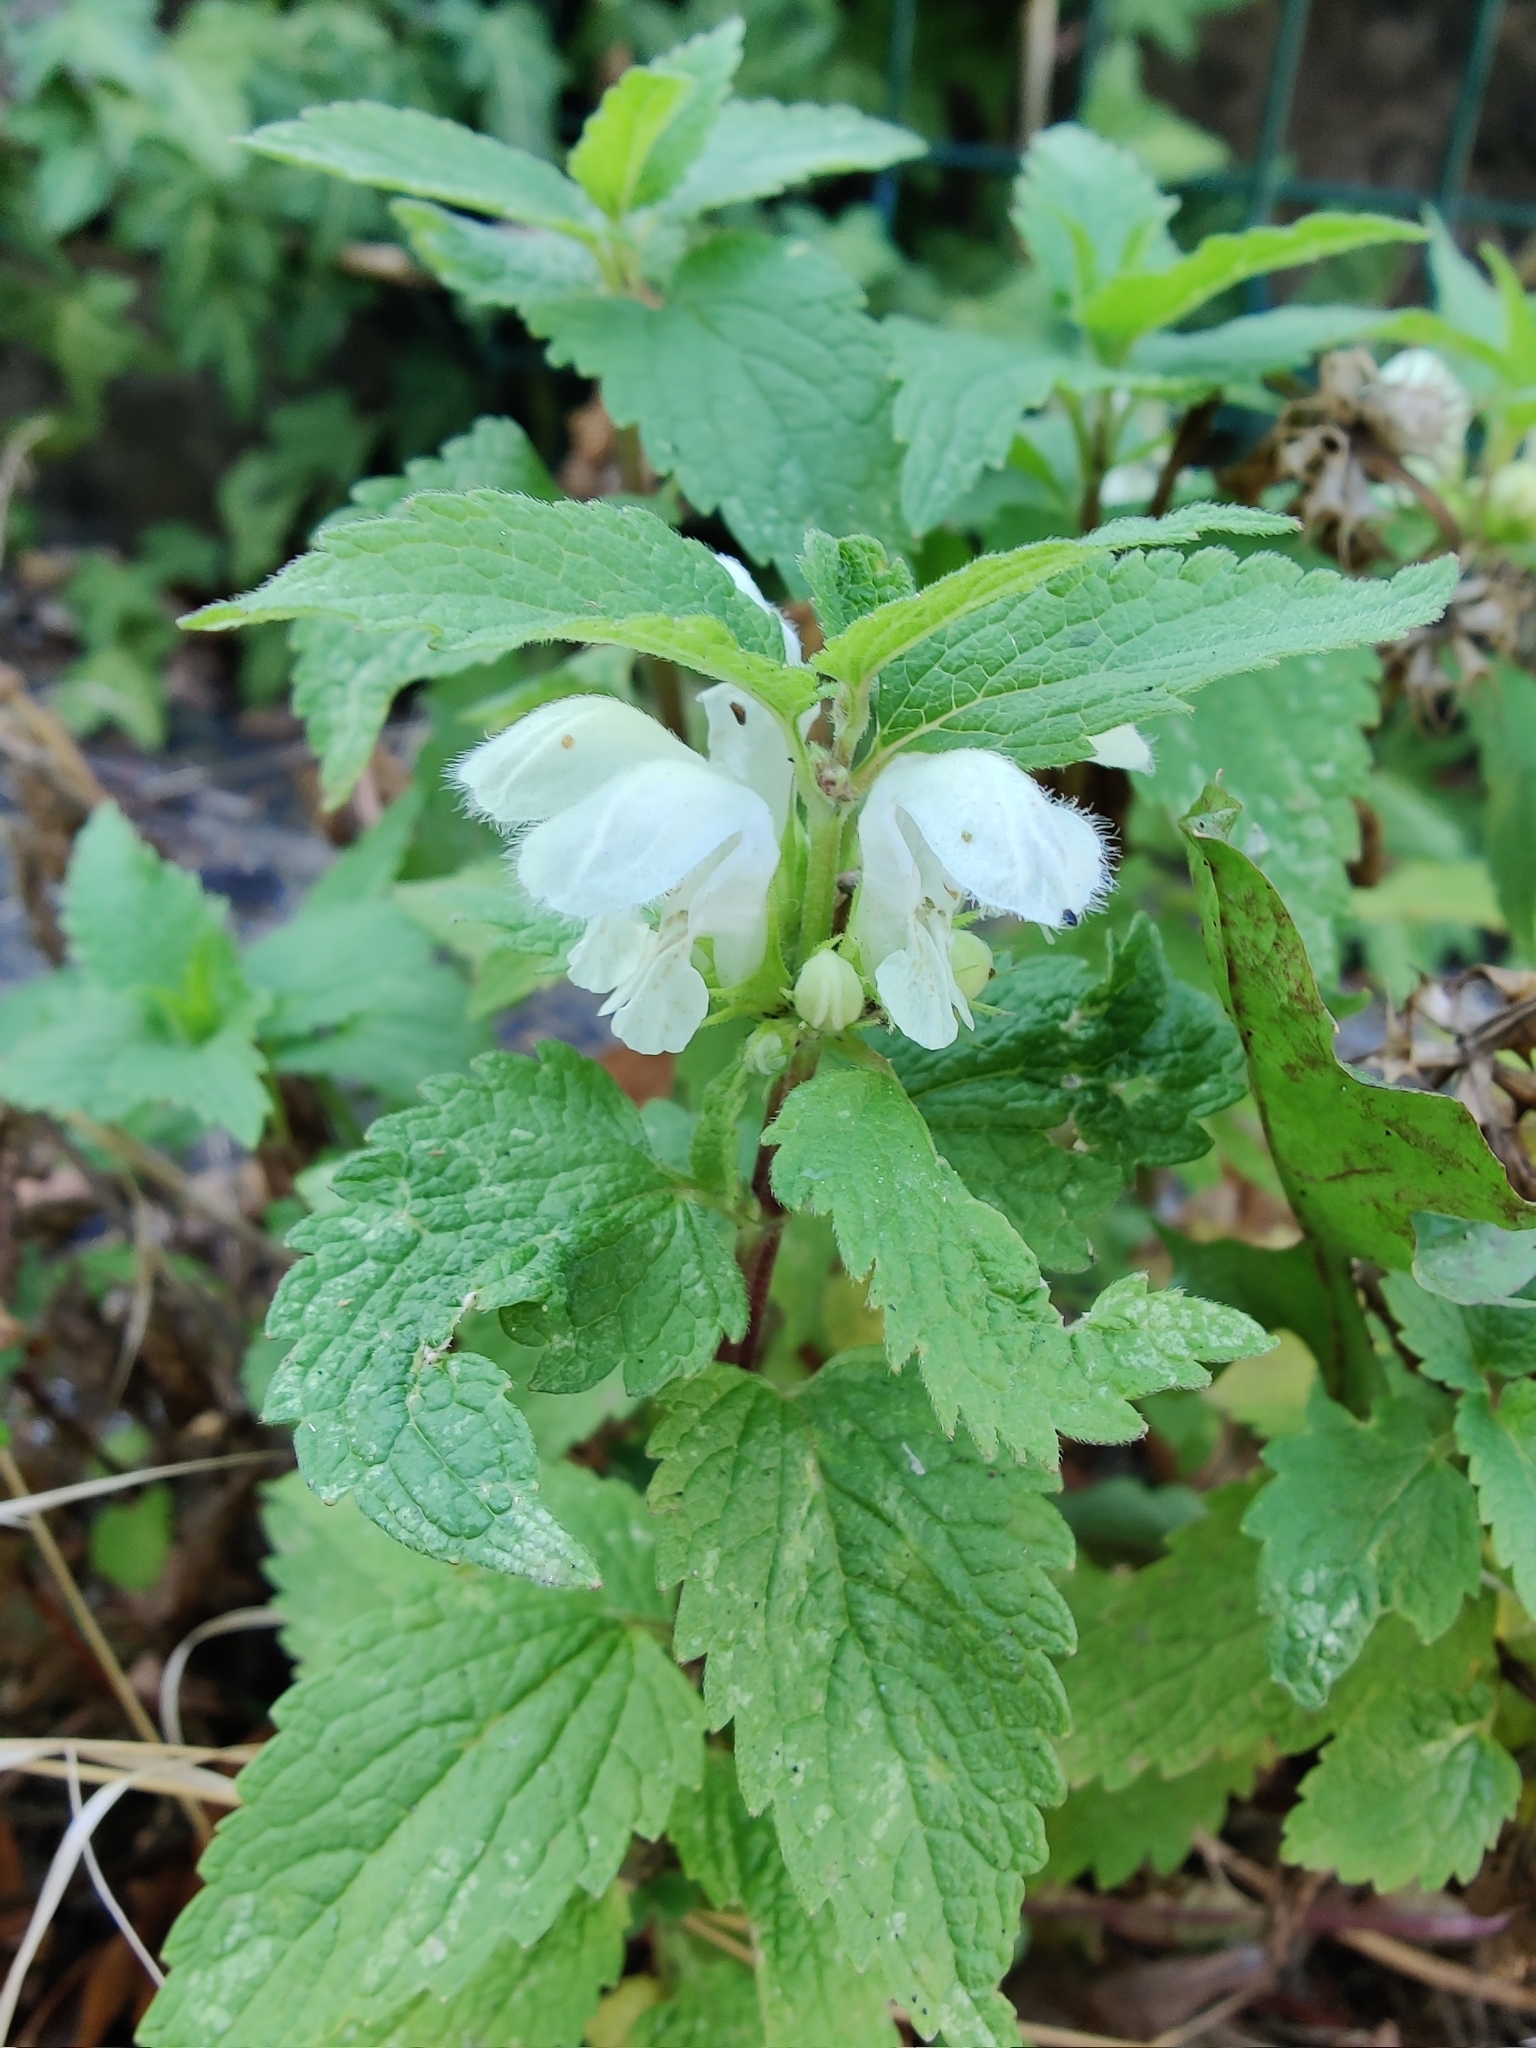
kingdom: Plantae
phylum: Tracheophyta
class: Magnoliopsida
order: Lamiales
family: Lamiaceae
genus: Lamium
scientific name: Lamium album
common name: White dead-nettle
